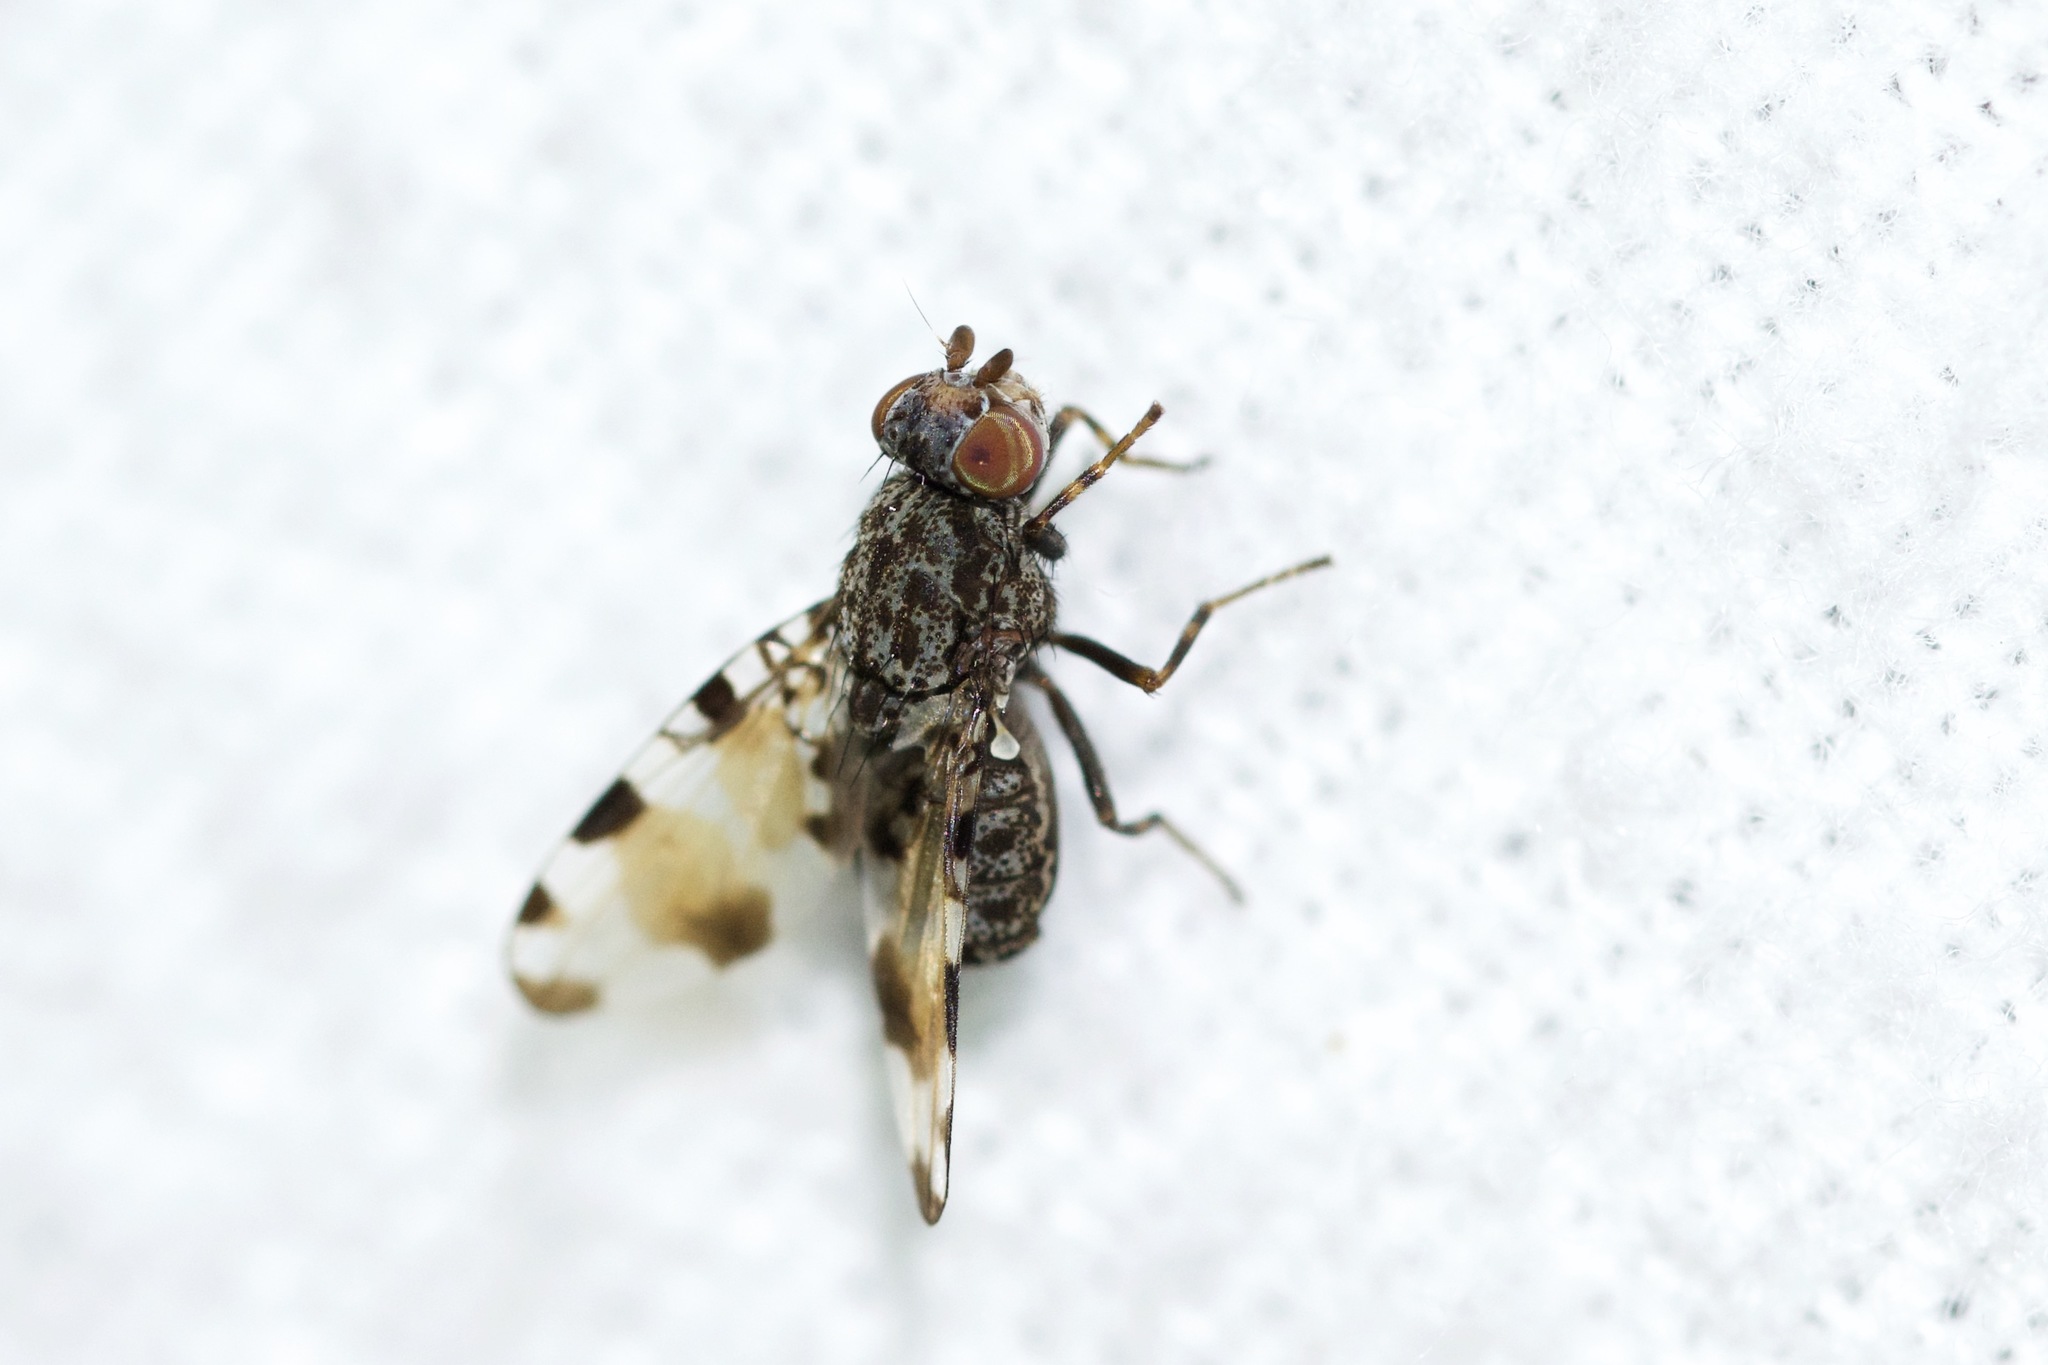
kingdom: Animalia
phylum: Arthropoda
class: Insecta
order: Diptera
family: Ulidiidae
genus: Pseudotephritis
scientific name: Pseudotephritis vau
